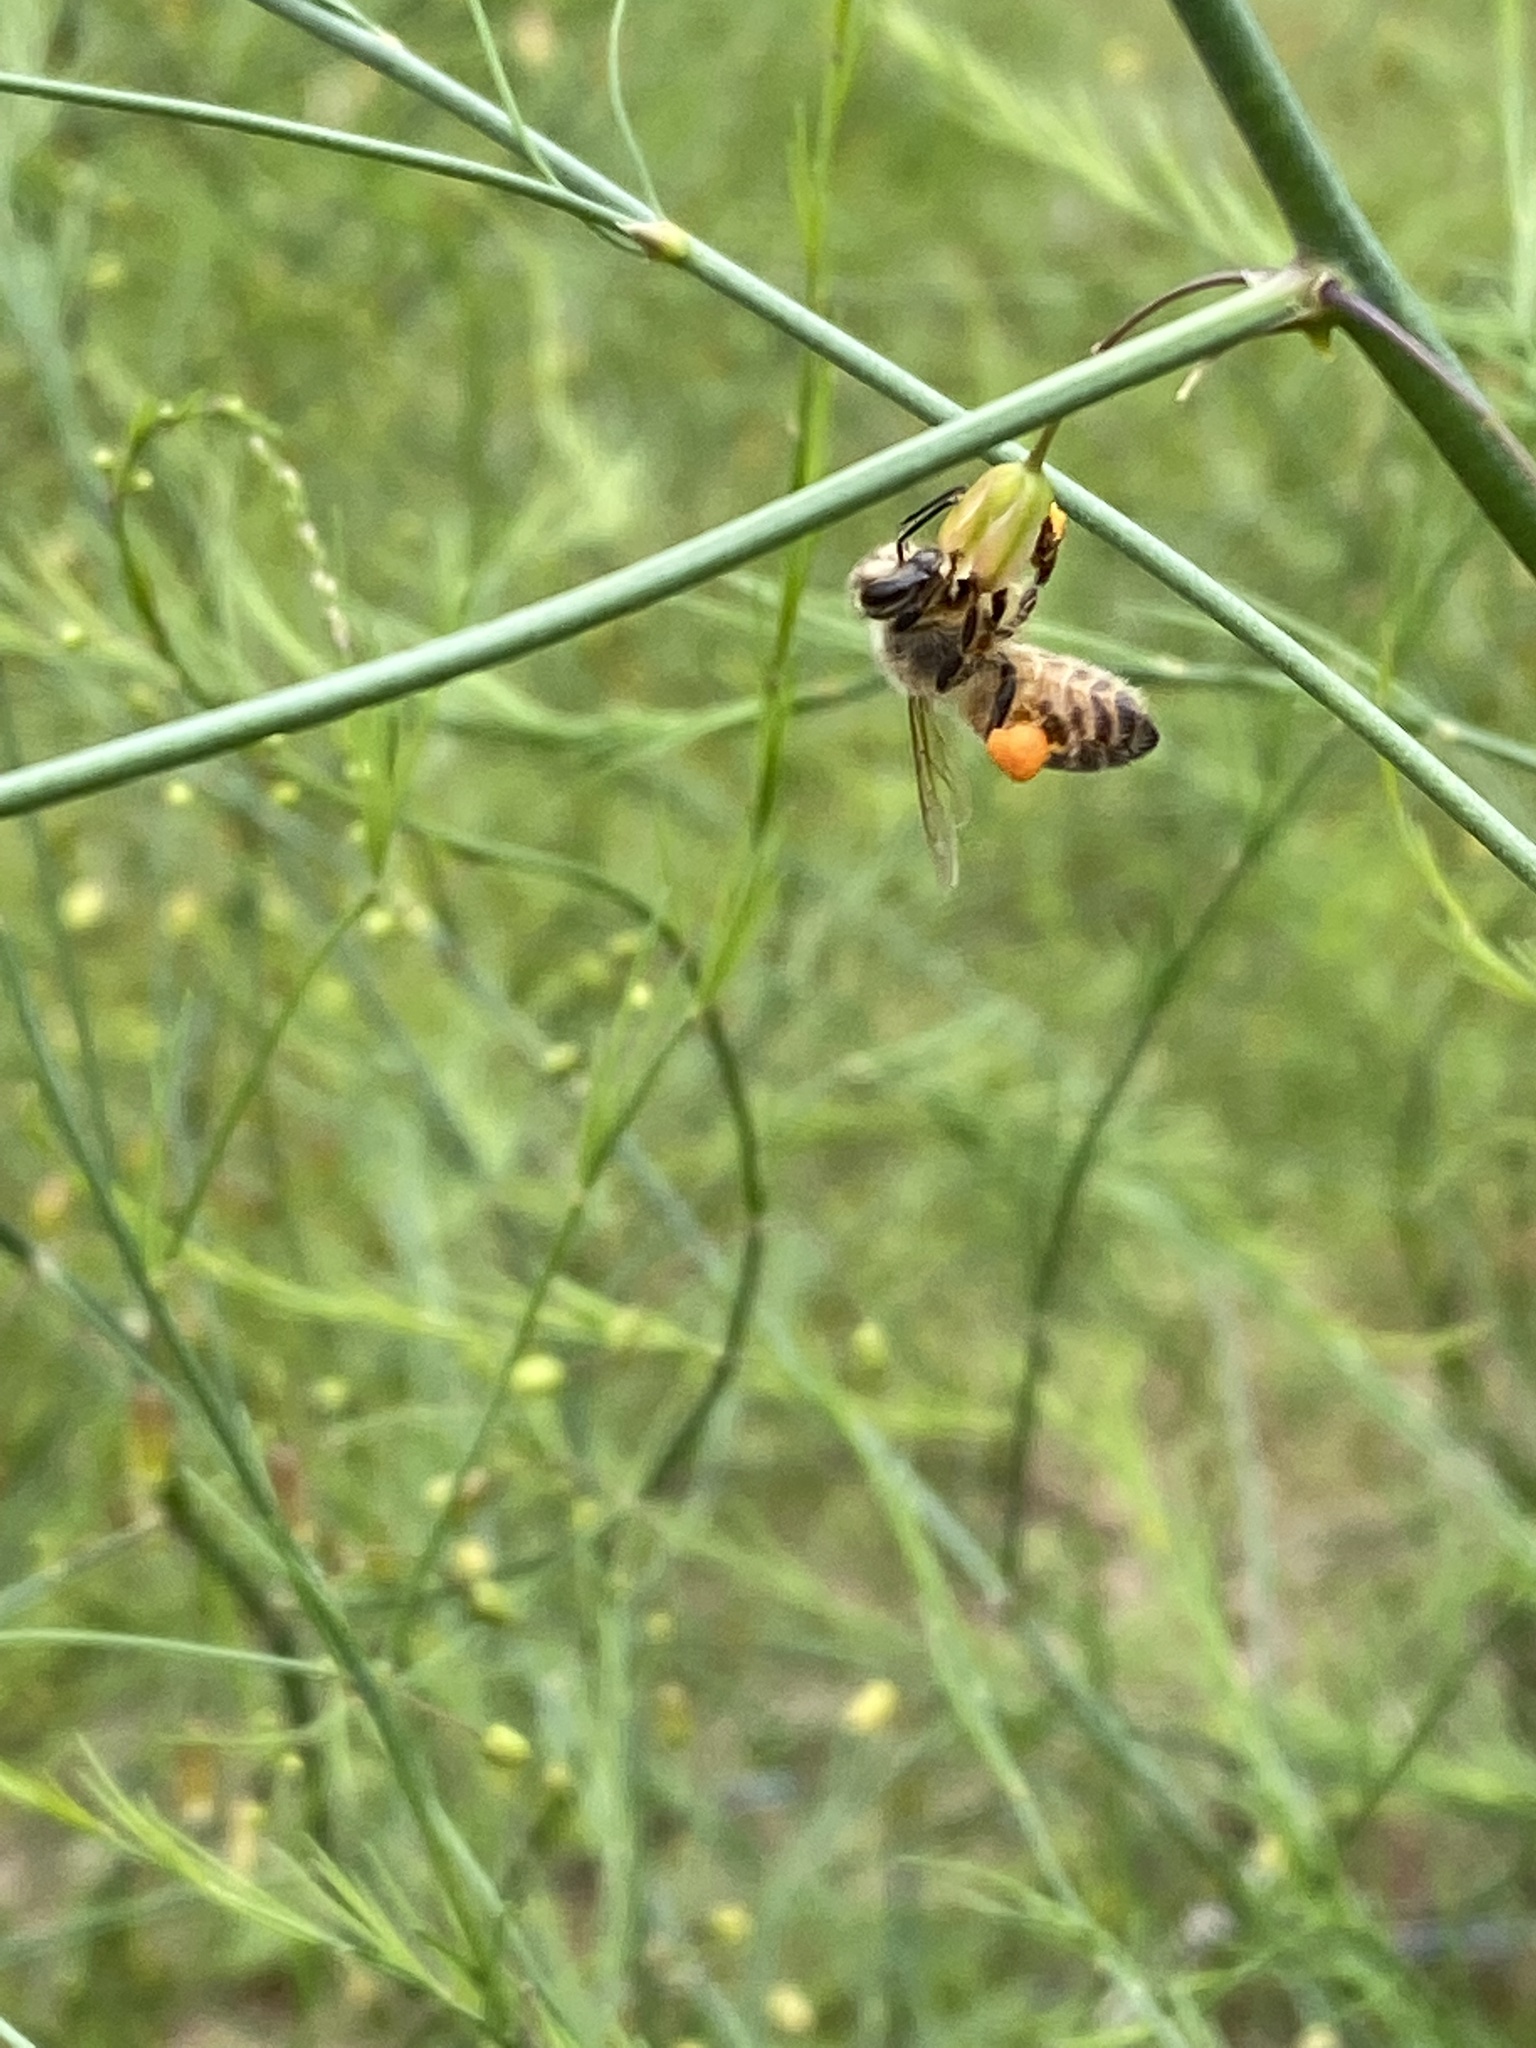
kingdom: Animalia
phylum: Arthropoda
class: Insecta
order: Hymenoptera
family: Apidae
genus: Apis
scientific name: Apis mellifera
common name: Honey bee
